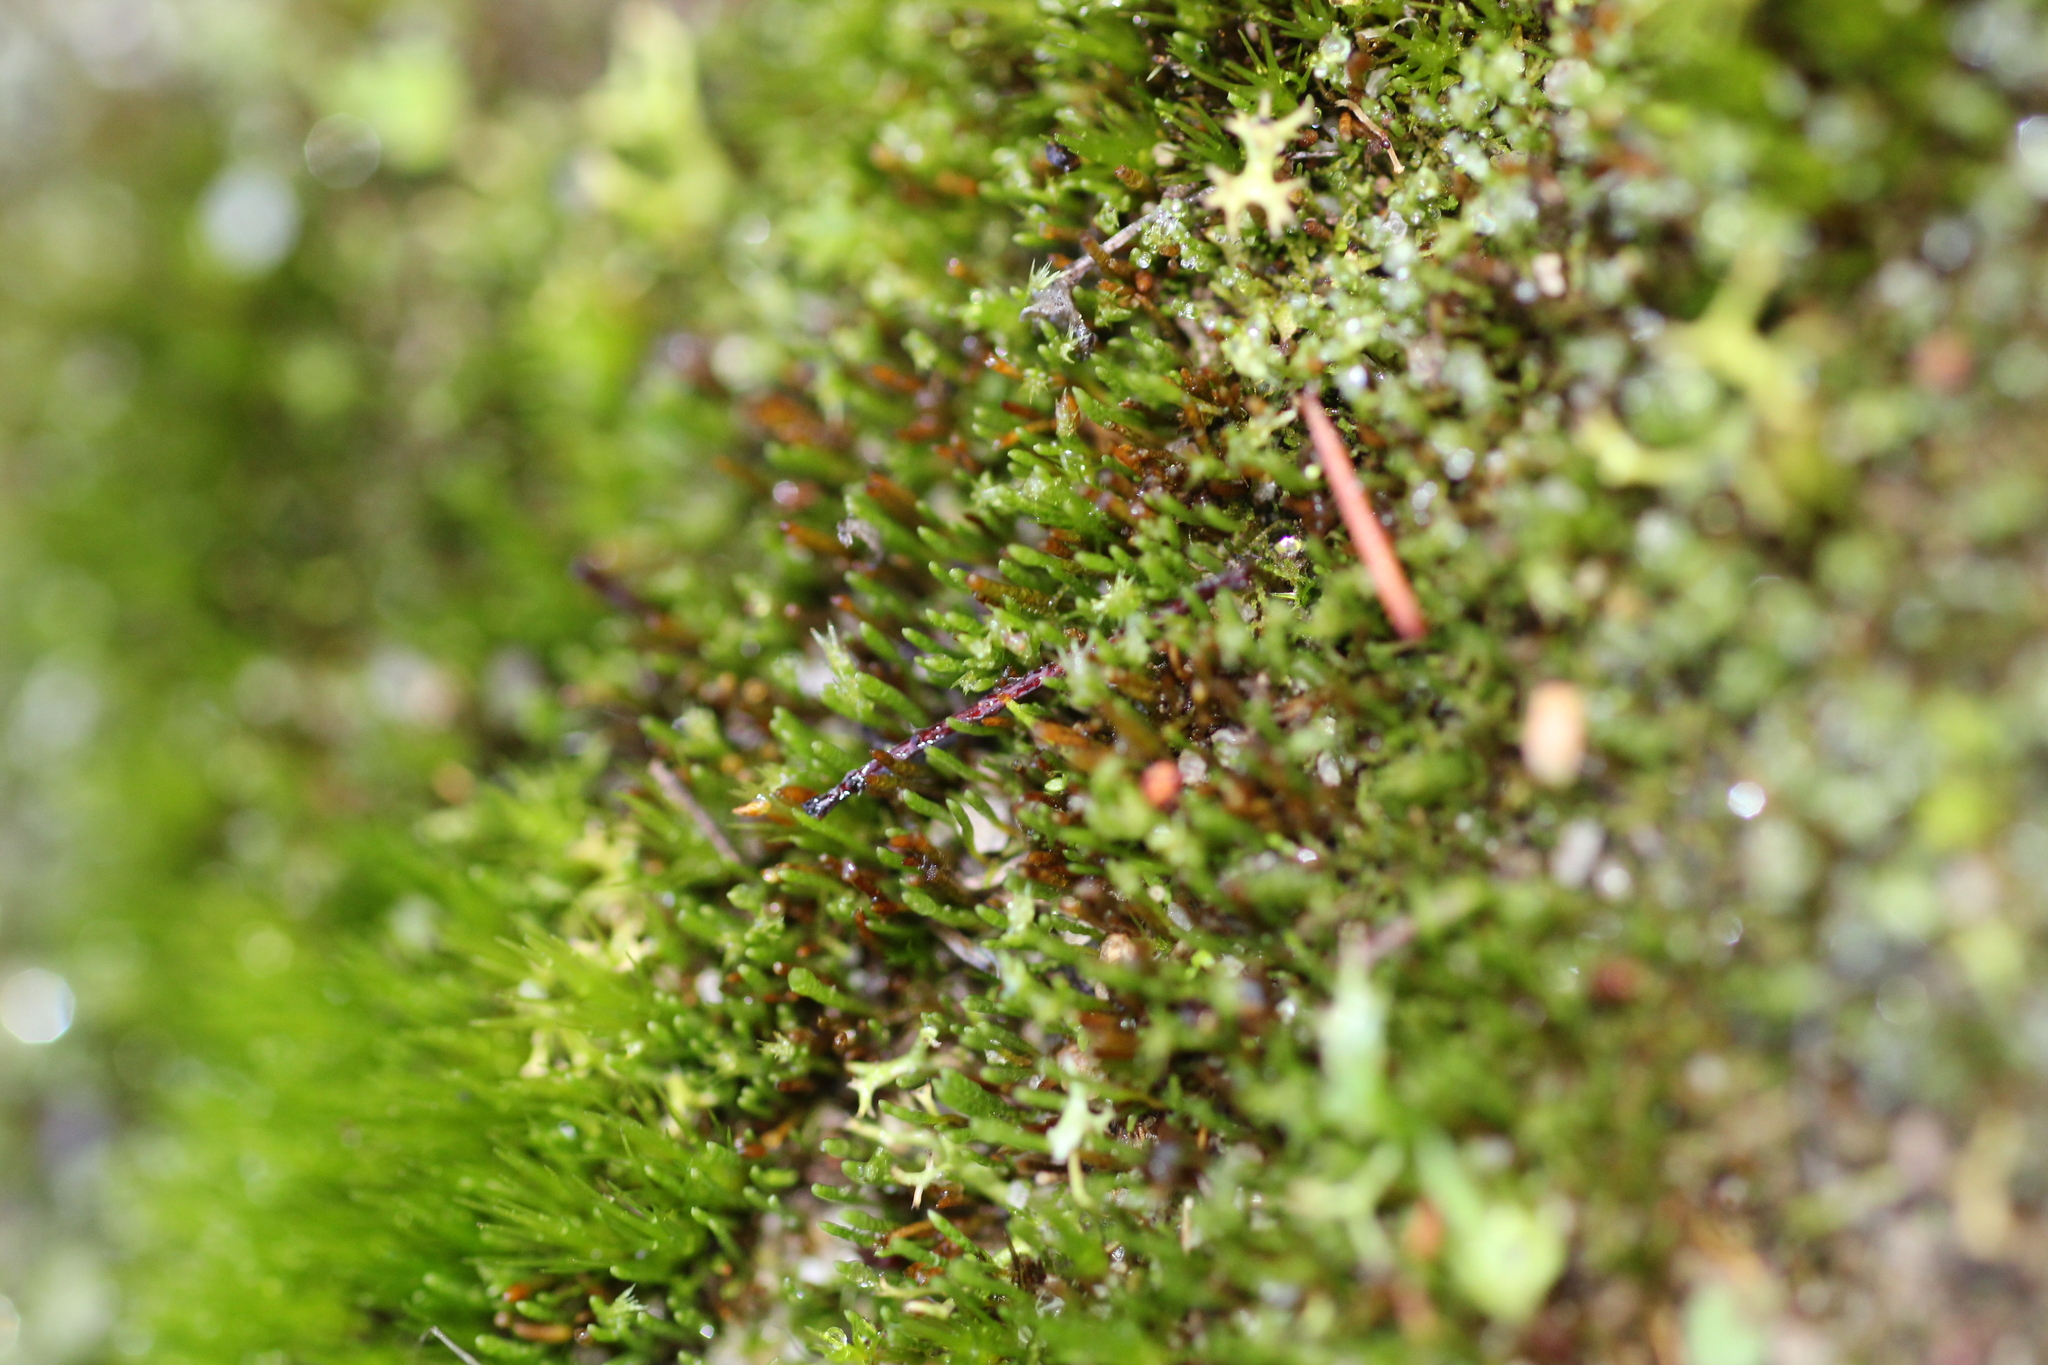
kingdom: Plantae
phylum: Bryophyta
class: Bryopsida
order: Dicranales
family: Dicranellaceae
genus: Eccremidium
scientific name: Eccremidium pulchellum
